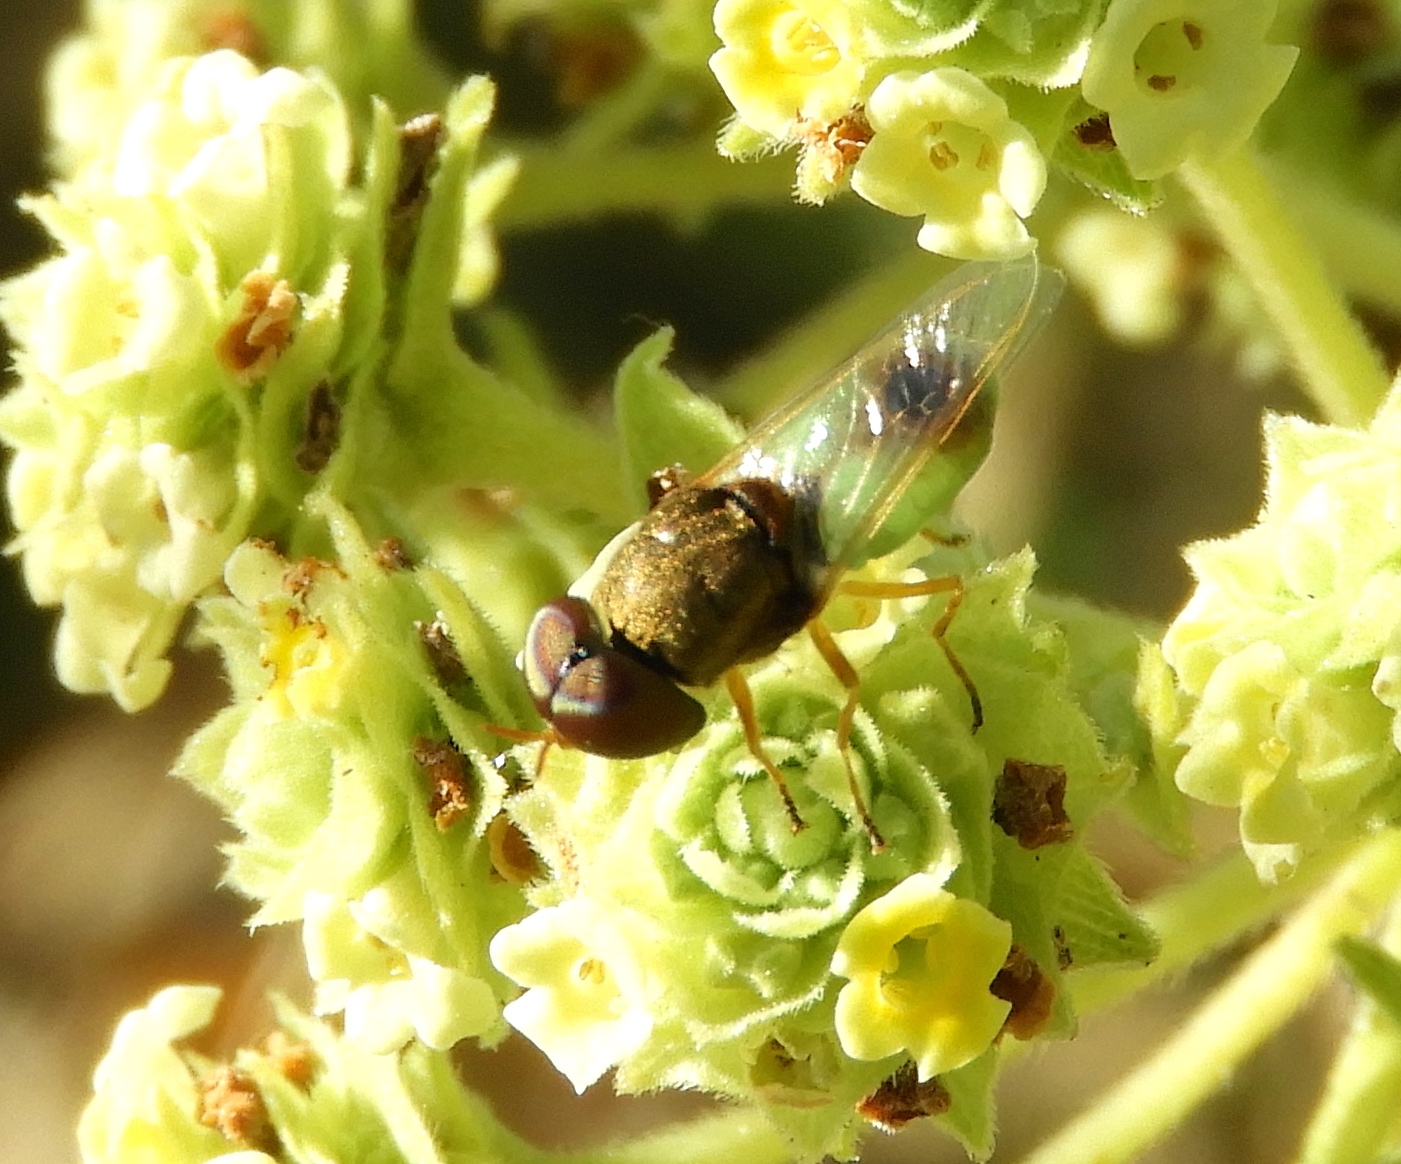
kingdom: Animalia
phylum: Arthropoda
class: Insecta
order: Diptera
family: Stratiomyidae
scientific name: Stratiomyidae
